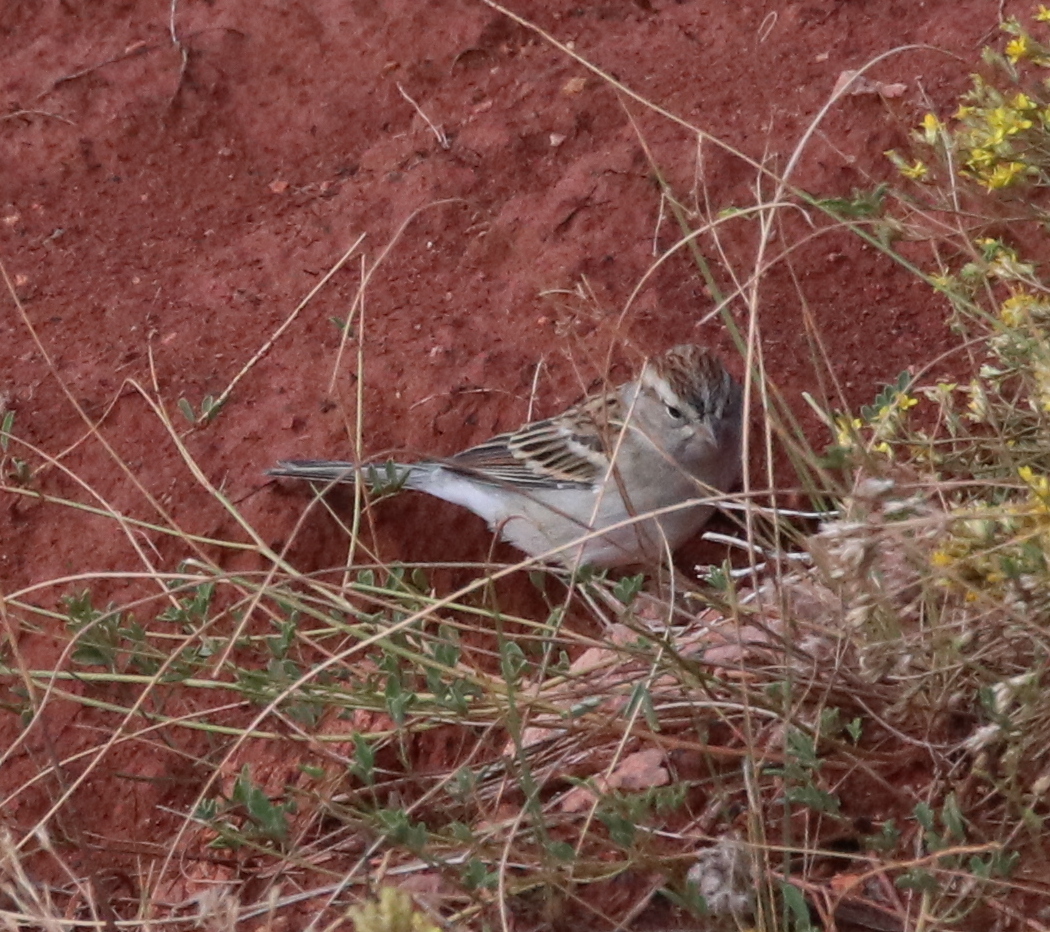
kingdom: Animalia
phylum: Chordata
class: Aves
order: Passeriformes
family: Passerellidae
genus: Spizella
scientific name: Spizella passerina
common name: Chipping sparrow
